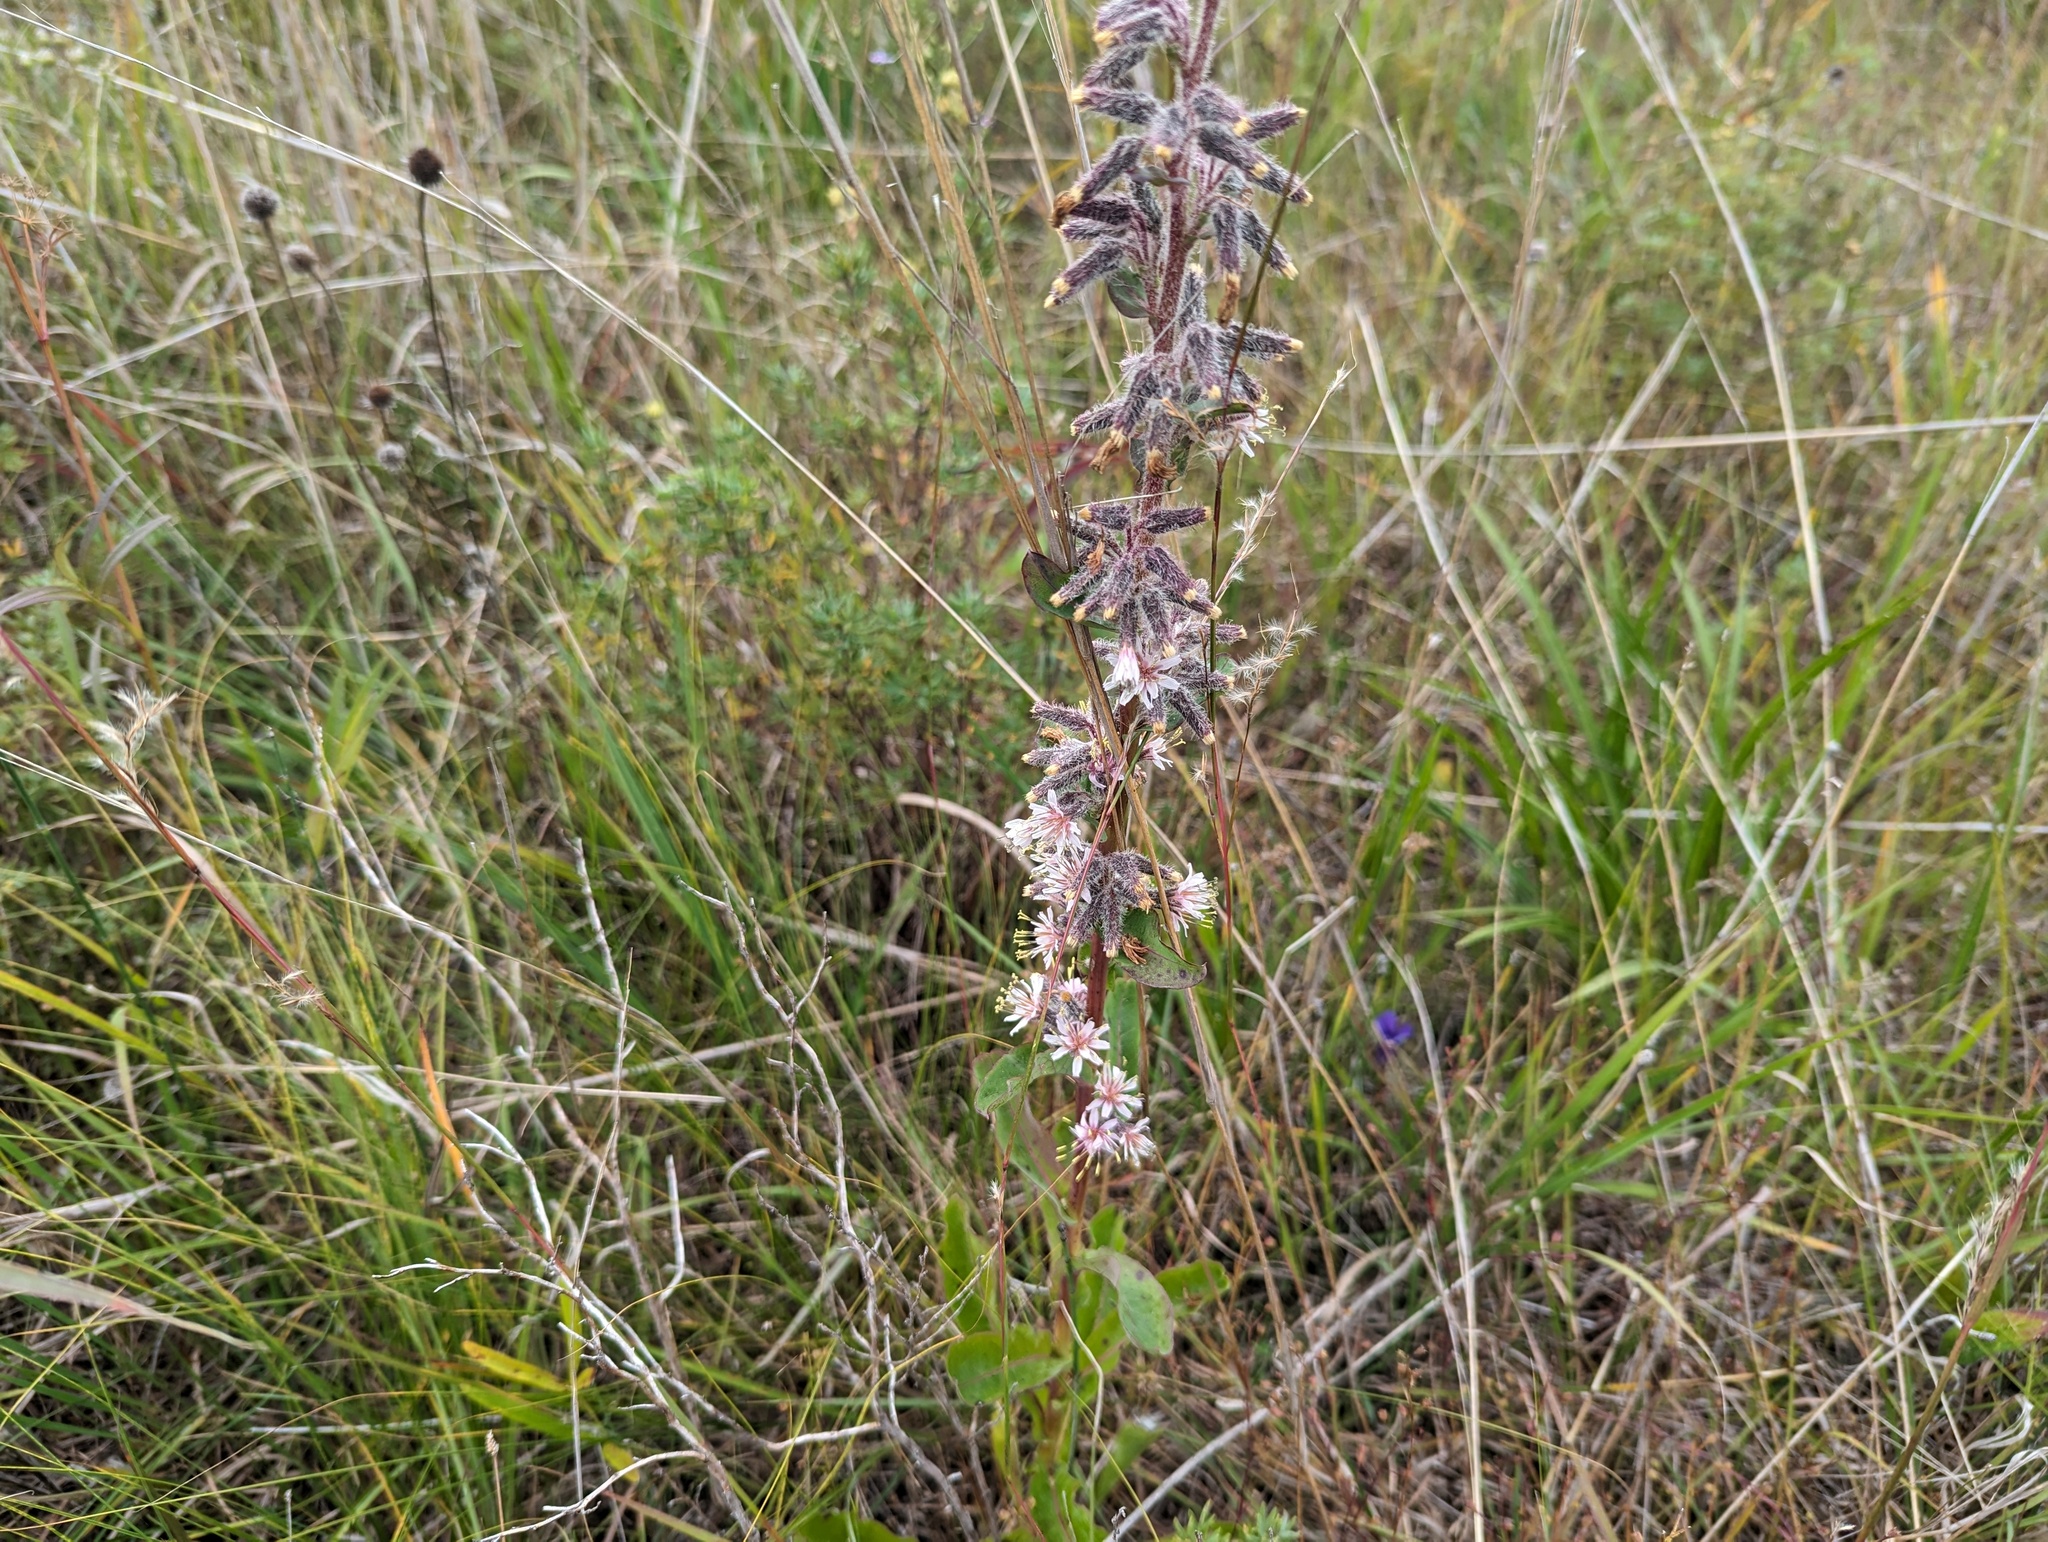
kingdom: Plantae
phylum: Tracheophyta
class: Magnoliopsida
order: Asterales
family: Asteraceae
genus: Nabalus
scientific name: Nabalus racemosus
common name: Glaucous white lettuce
